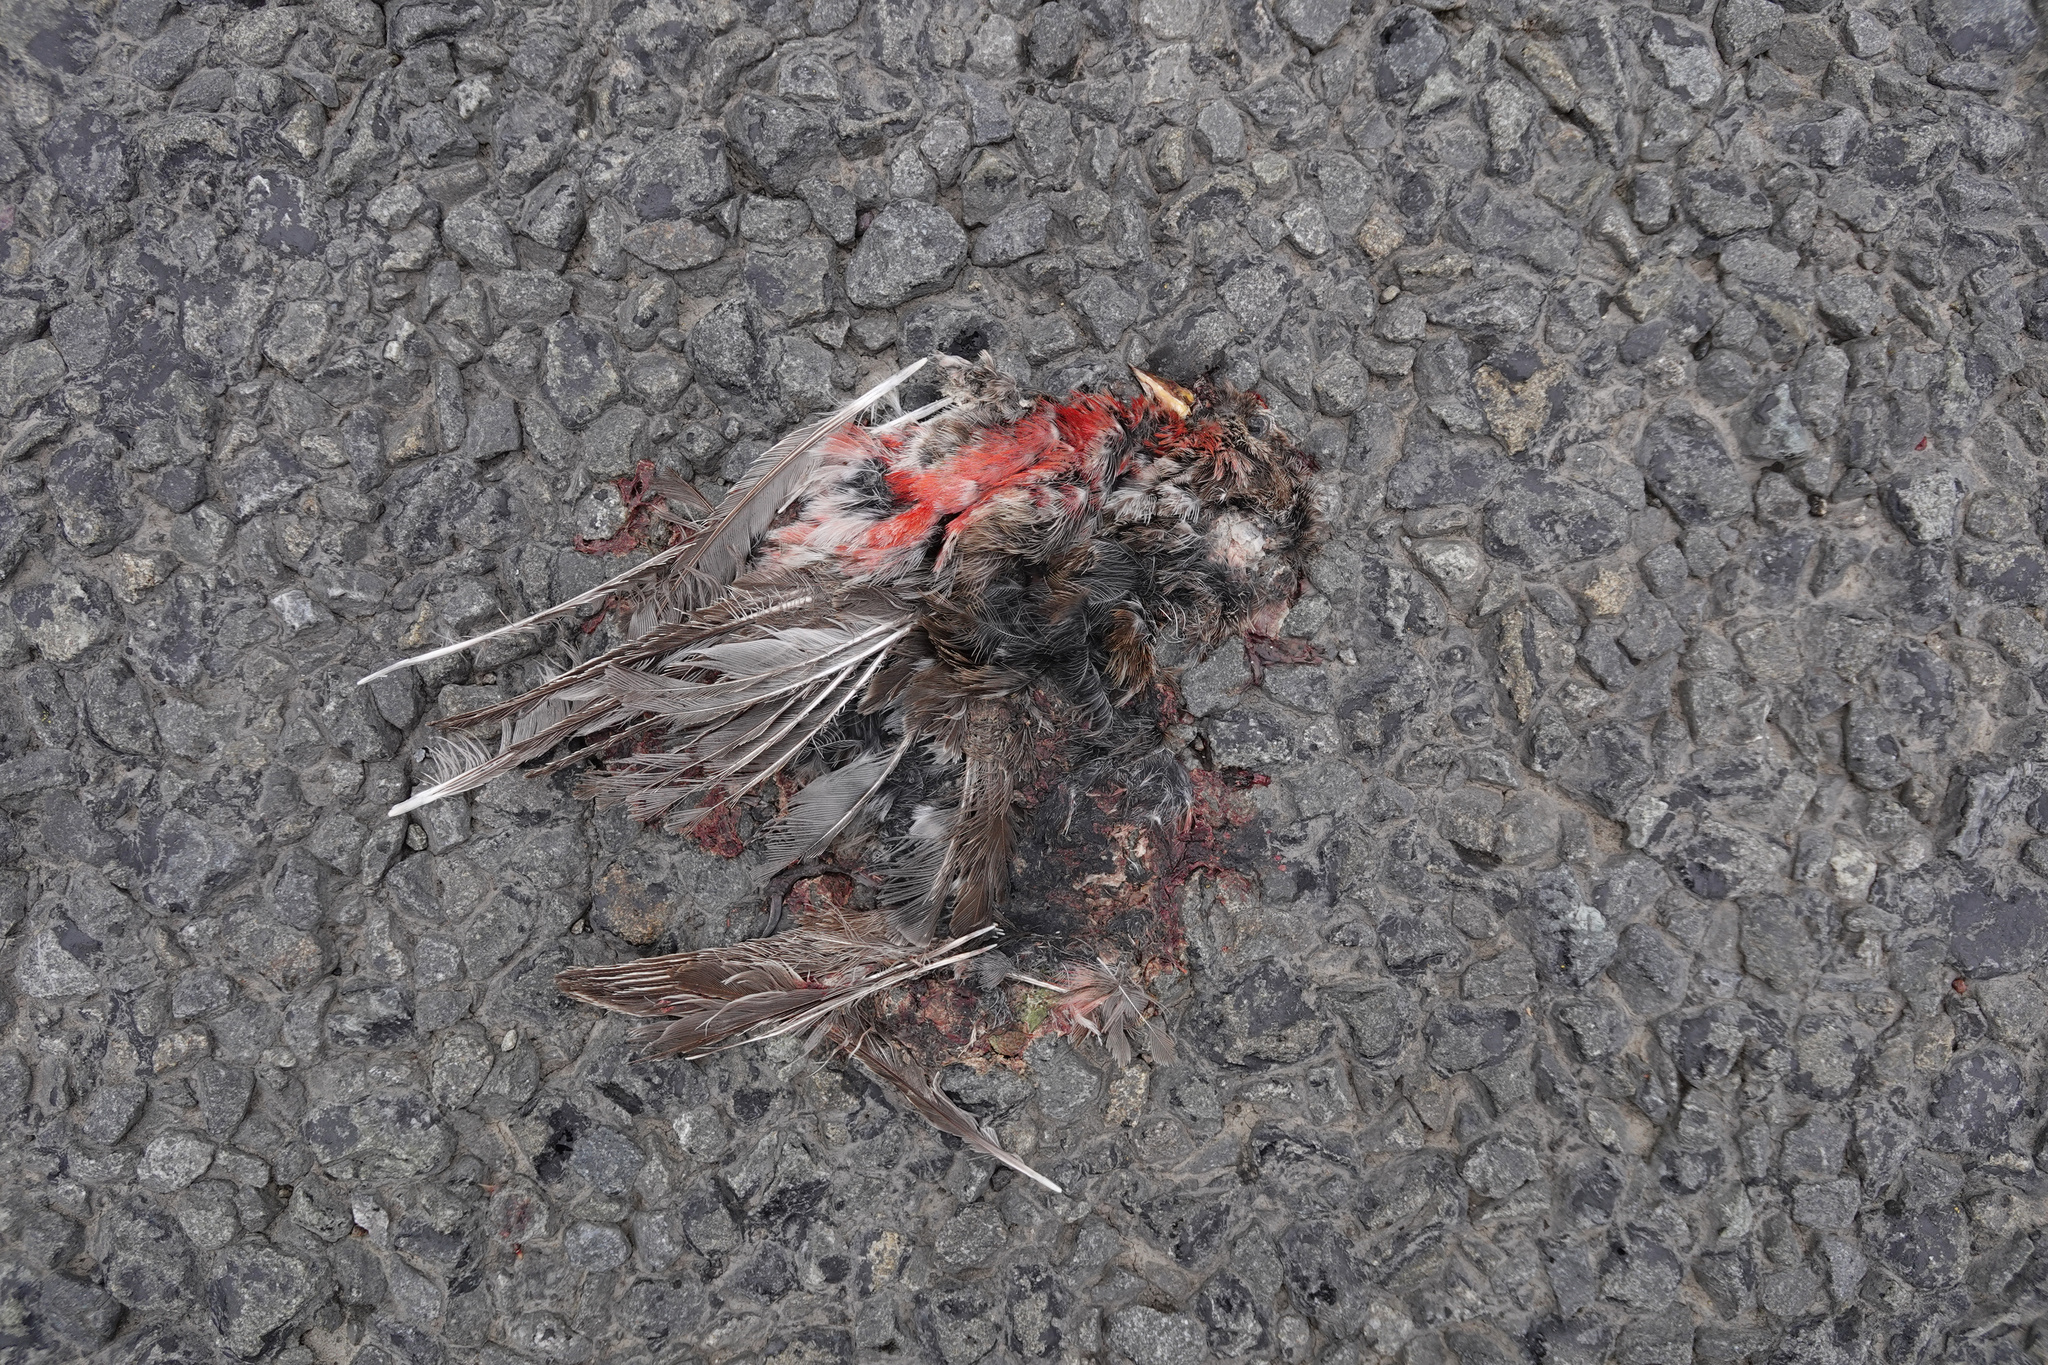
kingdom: Animalia
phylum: Chordata
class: Aves
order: Passeriformes
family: Fringillidae
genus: Acanthis
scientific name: Acanthis flammea
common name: Common redpoll
